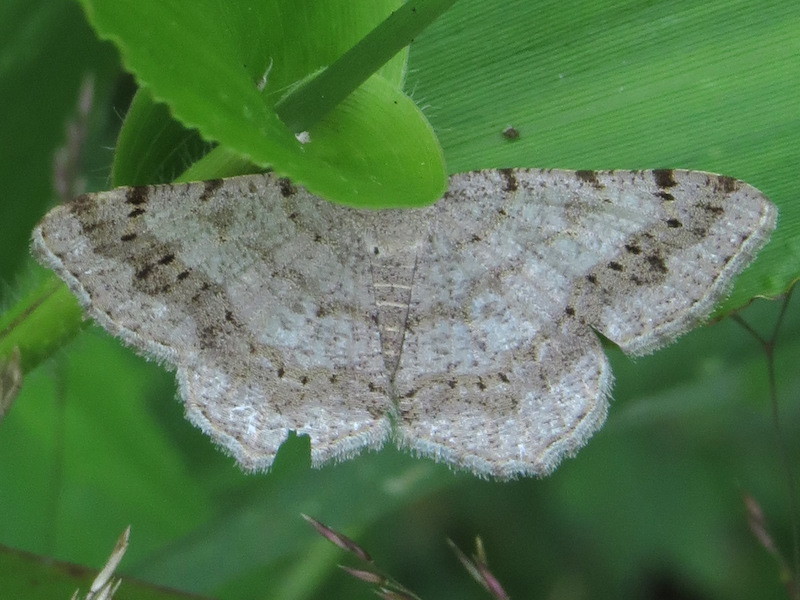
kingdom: Animalia
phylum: Arthropoda
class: Insecta
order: Lepidoptera
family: Geometridae
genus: Digrammia
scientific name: Digrammia ocellinata
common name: Faint-spotted angle
